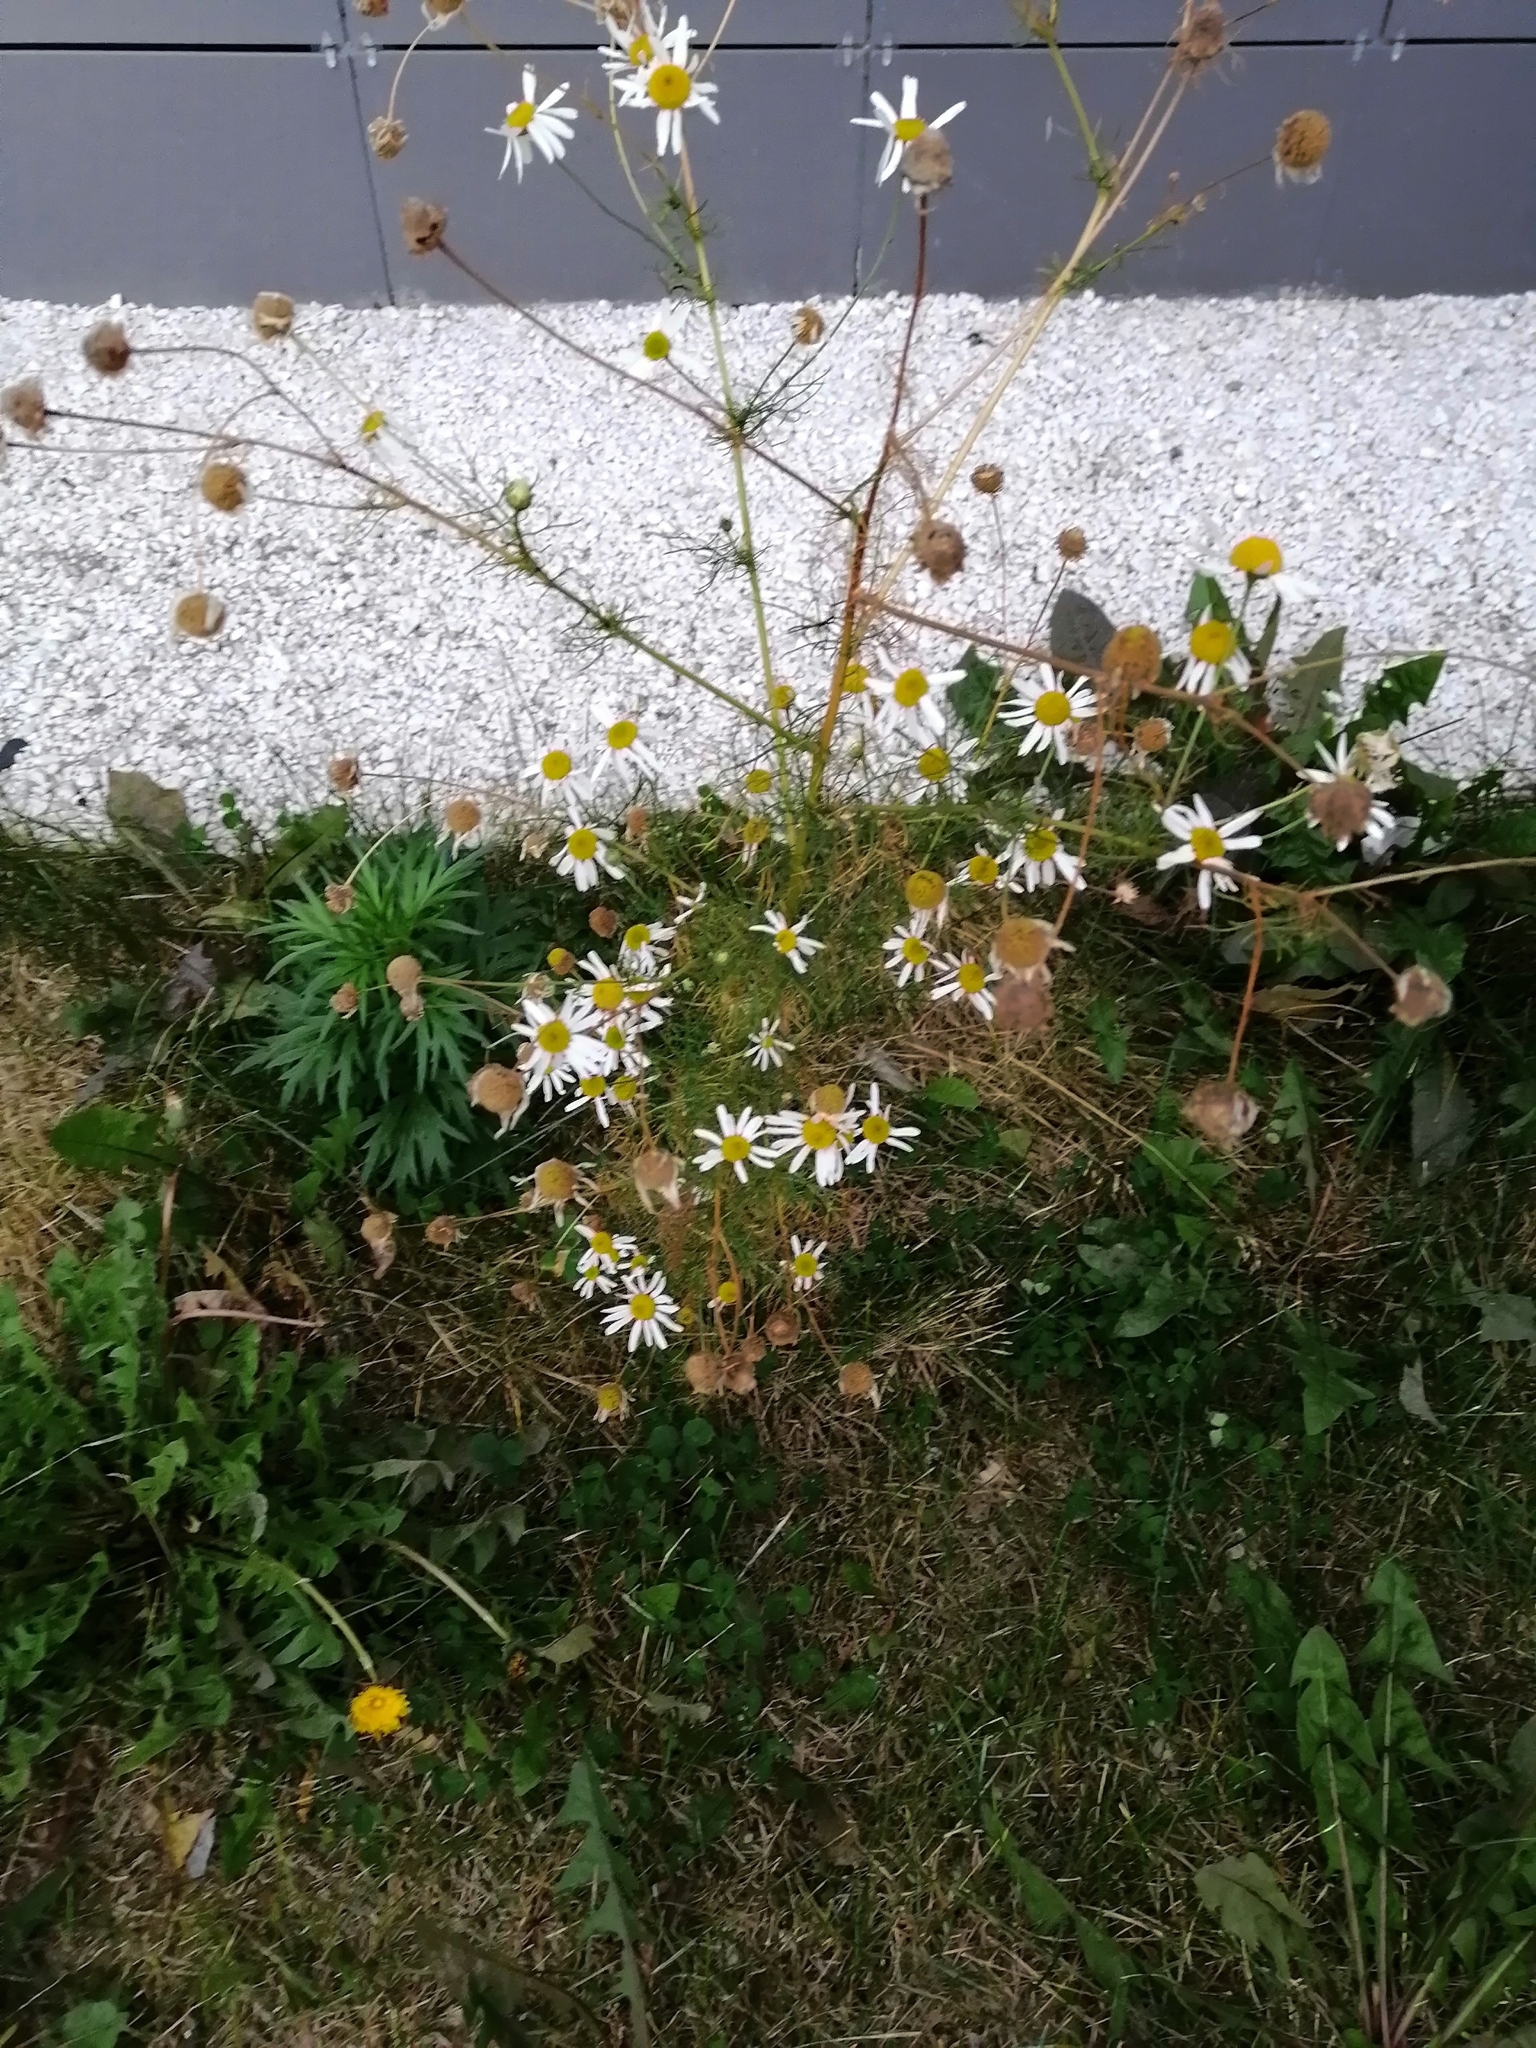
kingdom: Plantae
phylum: Tracheophyta
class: Magnoliopsida
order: Asterales
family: Asteraceae
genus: Tripleurospermum
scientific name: Tripleurospermum inodorum
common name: Scentless mayweed
